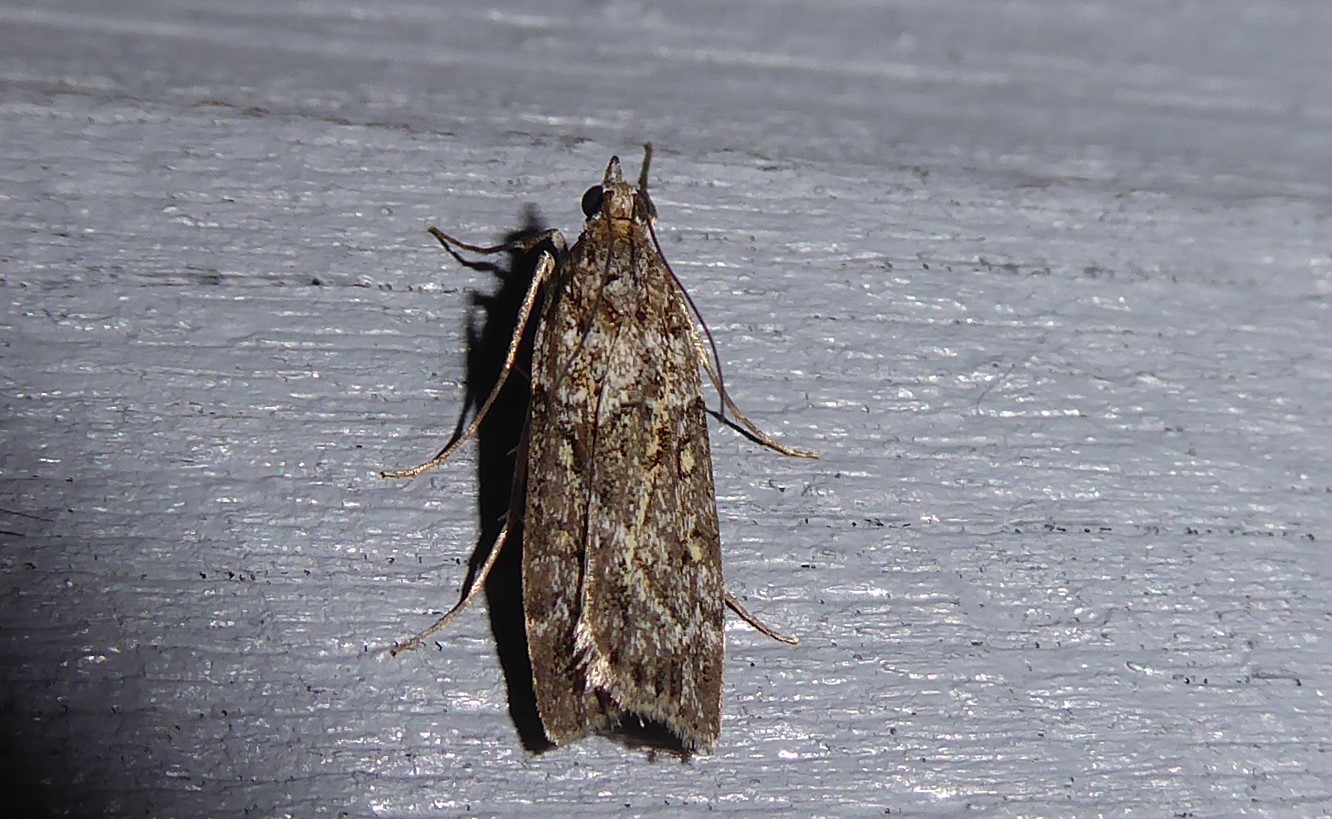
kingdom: Animalia
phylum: Arthropoda
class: Insecta
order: Lepidoptera
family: Crambidae
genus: Eudonia
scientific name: Eudonia diphtheralis
